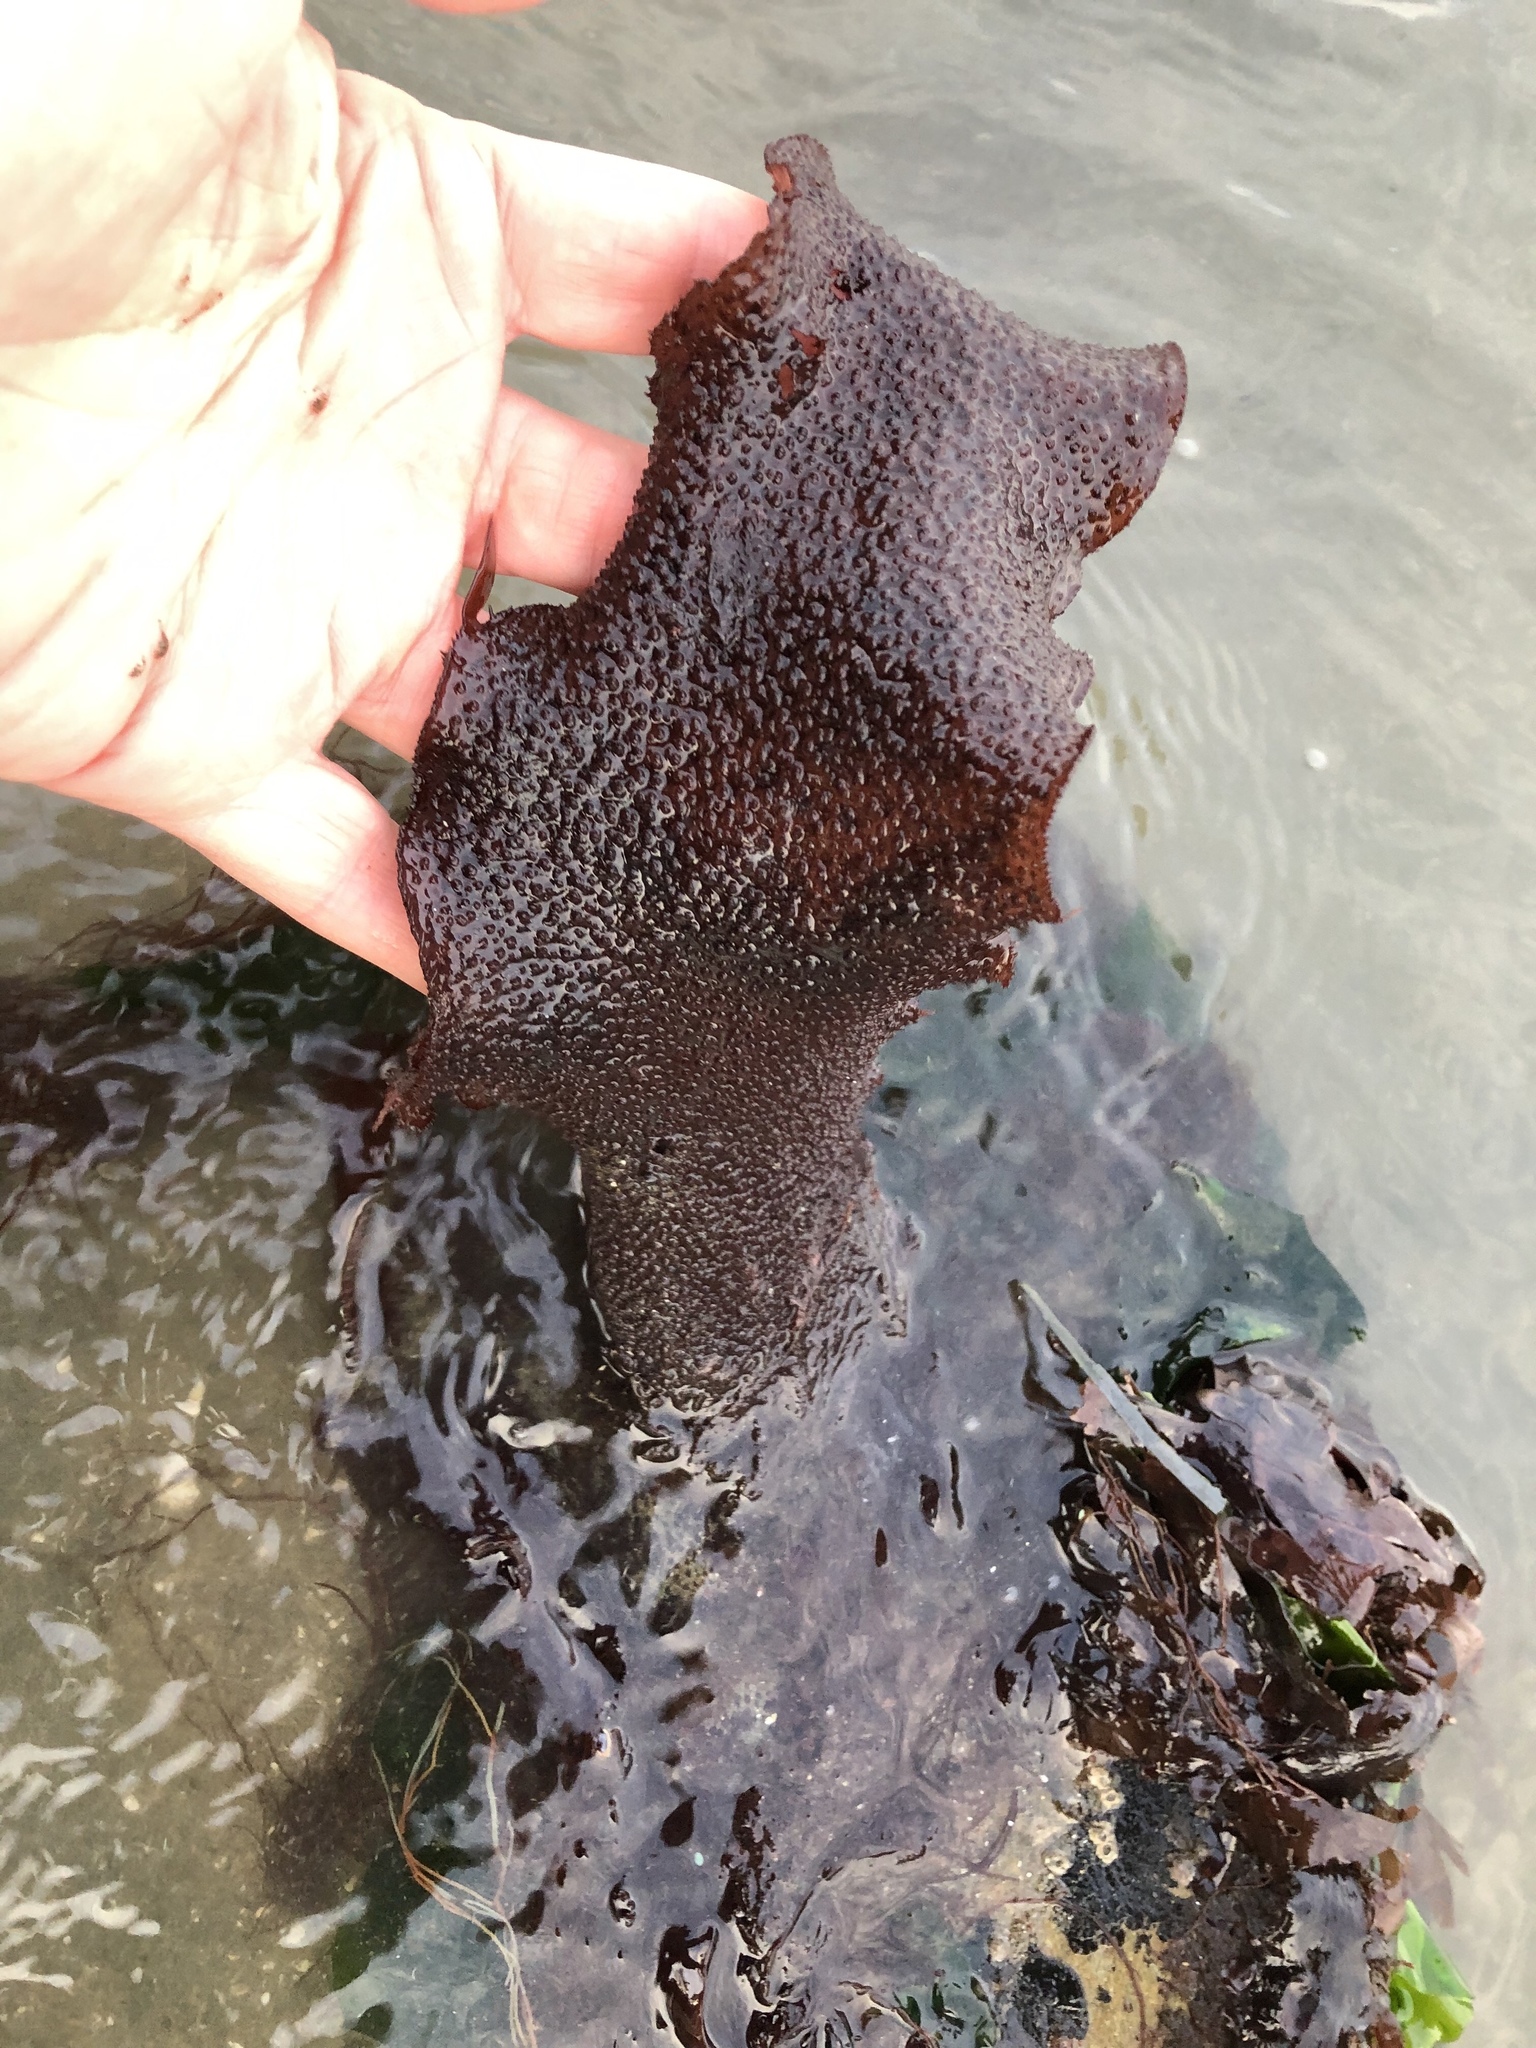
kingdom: Plantae
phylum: Rhodophyta
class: Florideophyceae
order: Gigartinales
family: Gigartinaceae
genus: Chondracanthus
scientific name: Chondracanthus exasperatus
